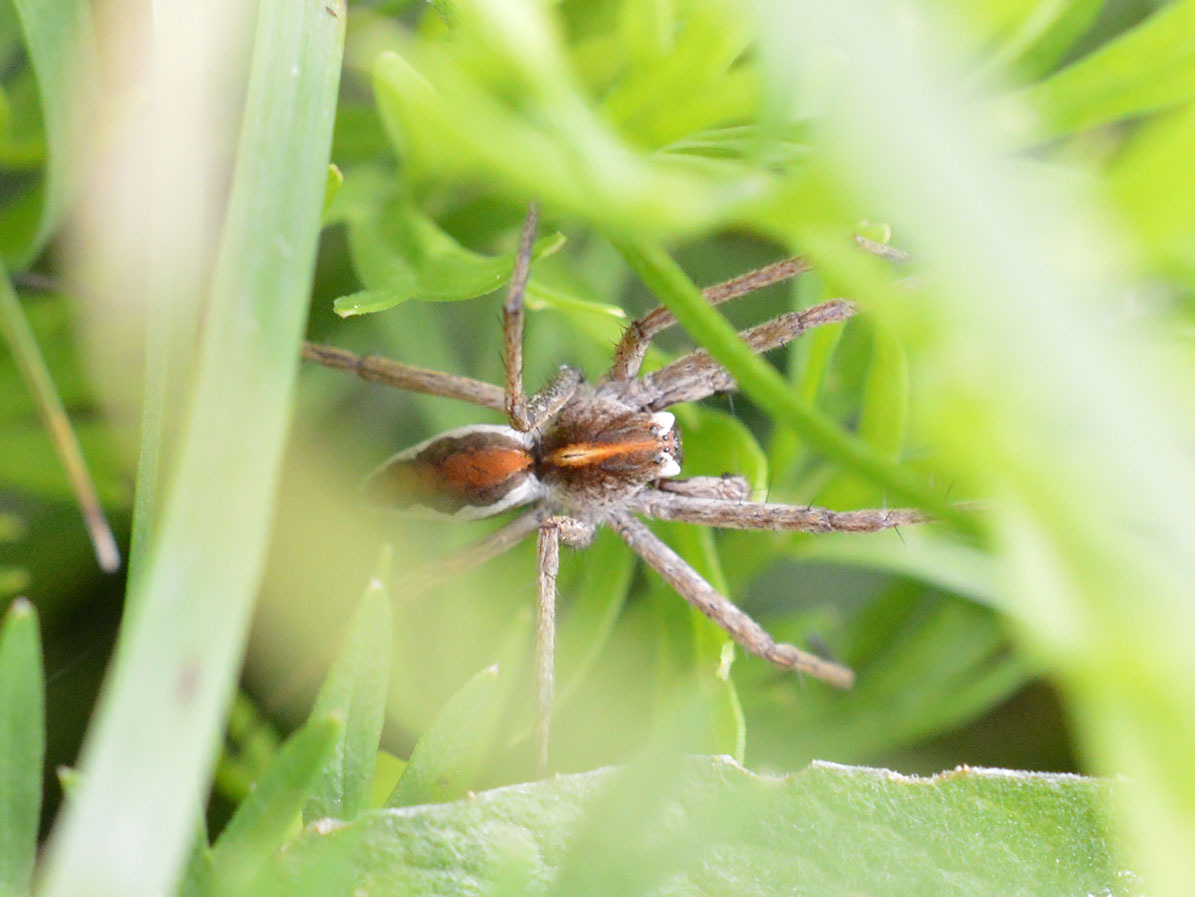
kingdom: Animalia
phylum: Arthropoda
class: Arachnida
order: Araneae
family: Pisauridae
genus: Pisaura
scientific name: Pisaura
